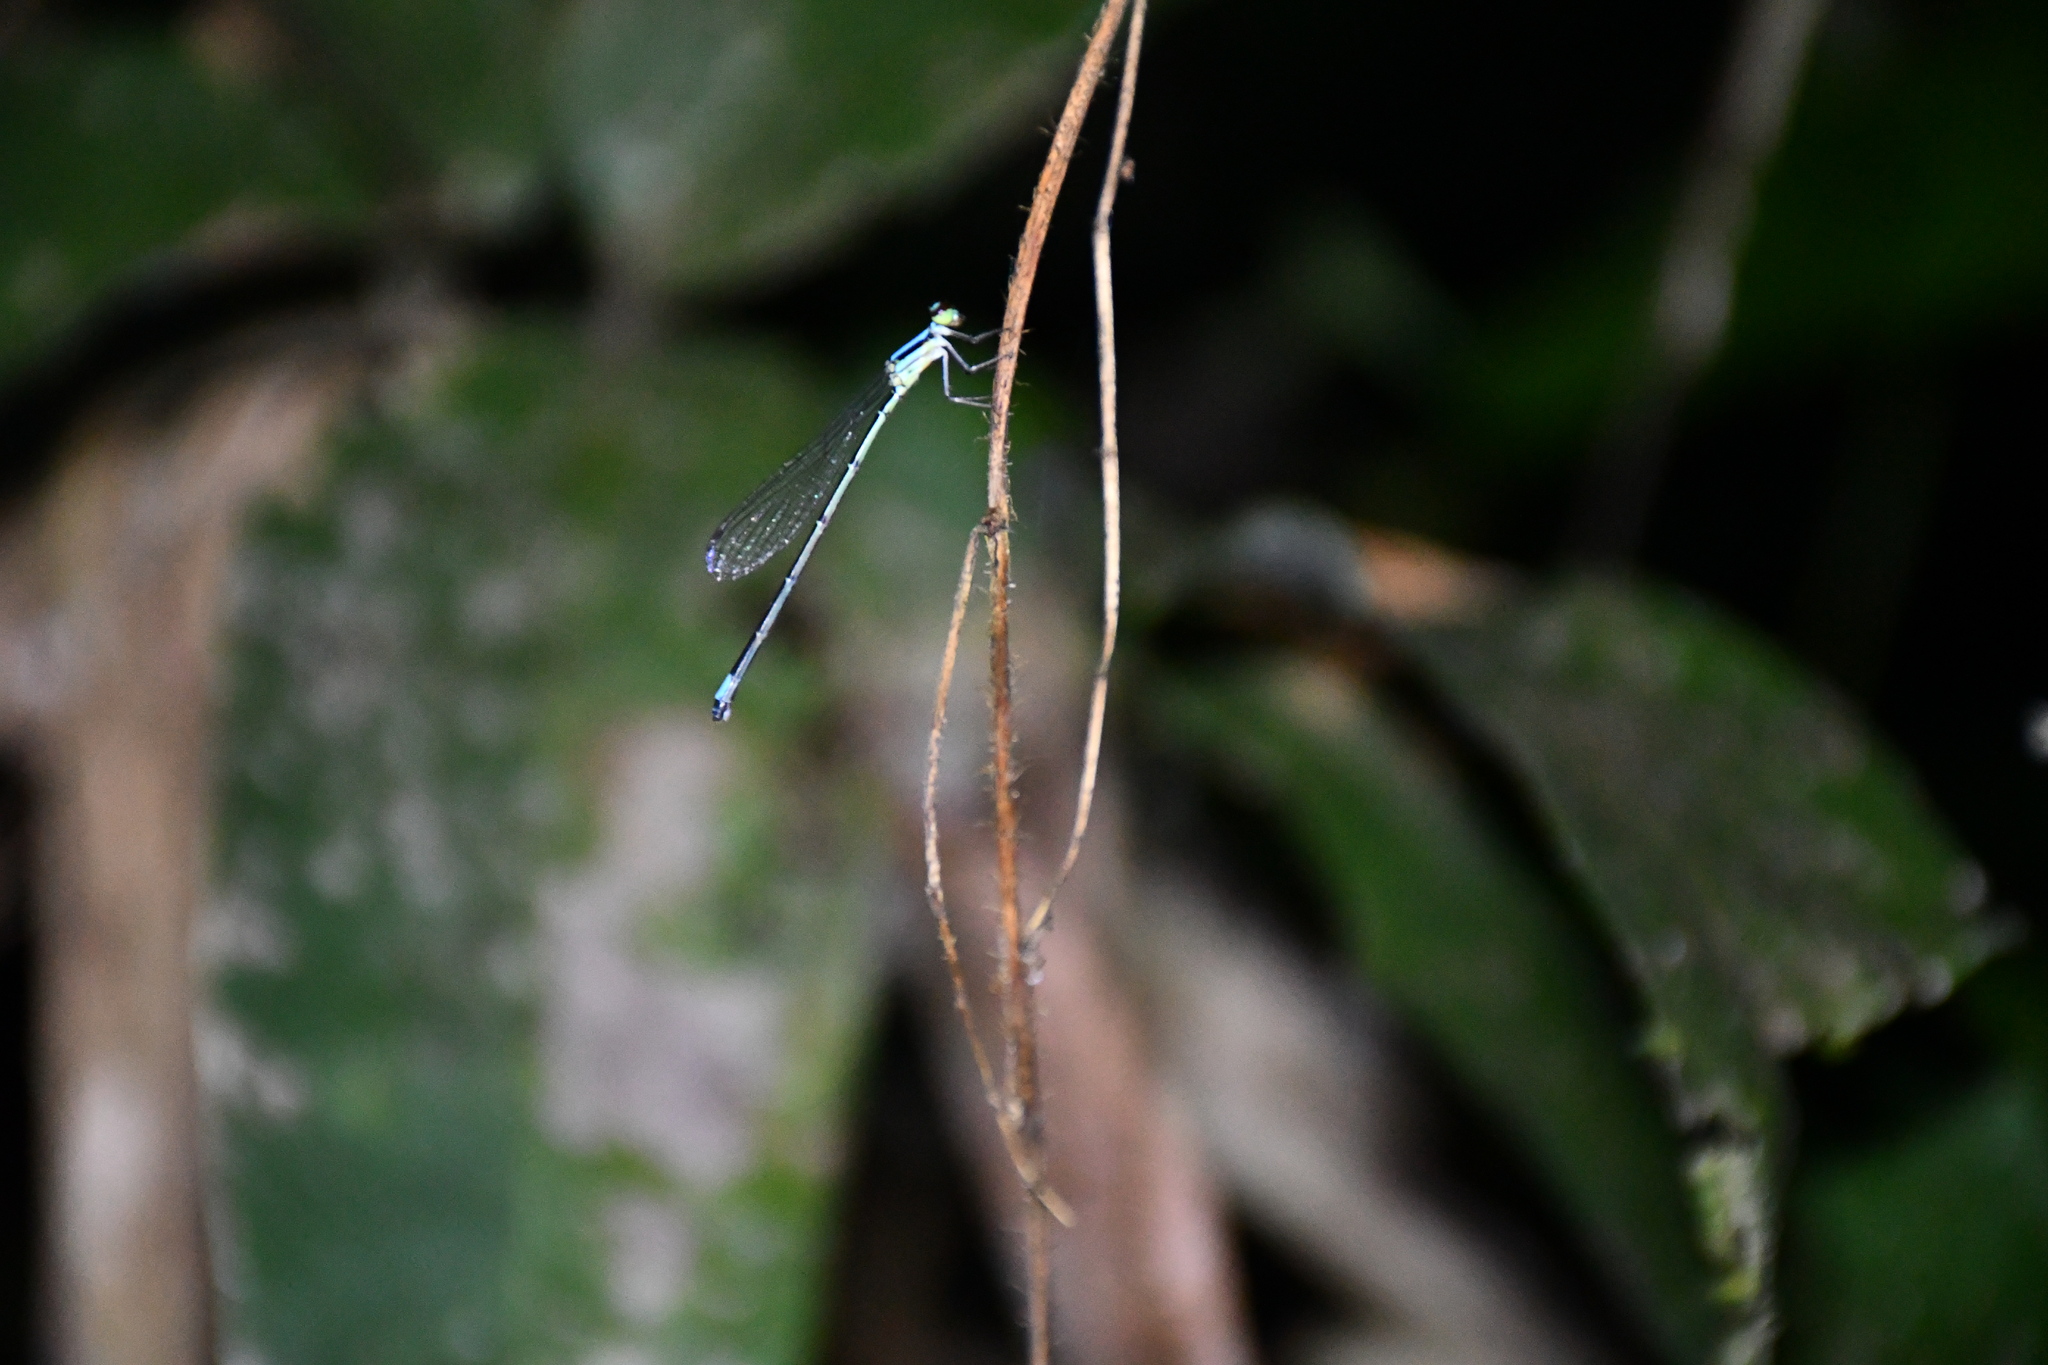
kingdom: Animalia
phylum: Arthropoda
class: Insecta
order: Odonata
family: Coenagrionidae
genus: Argia
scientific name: Argia jujuya
